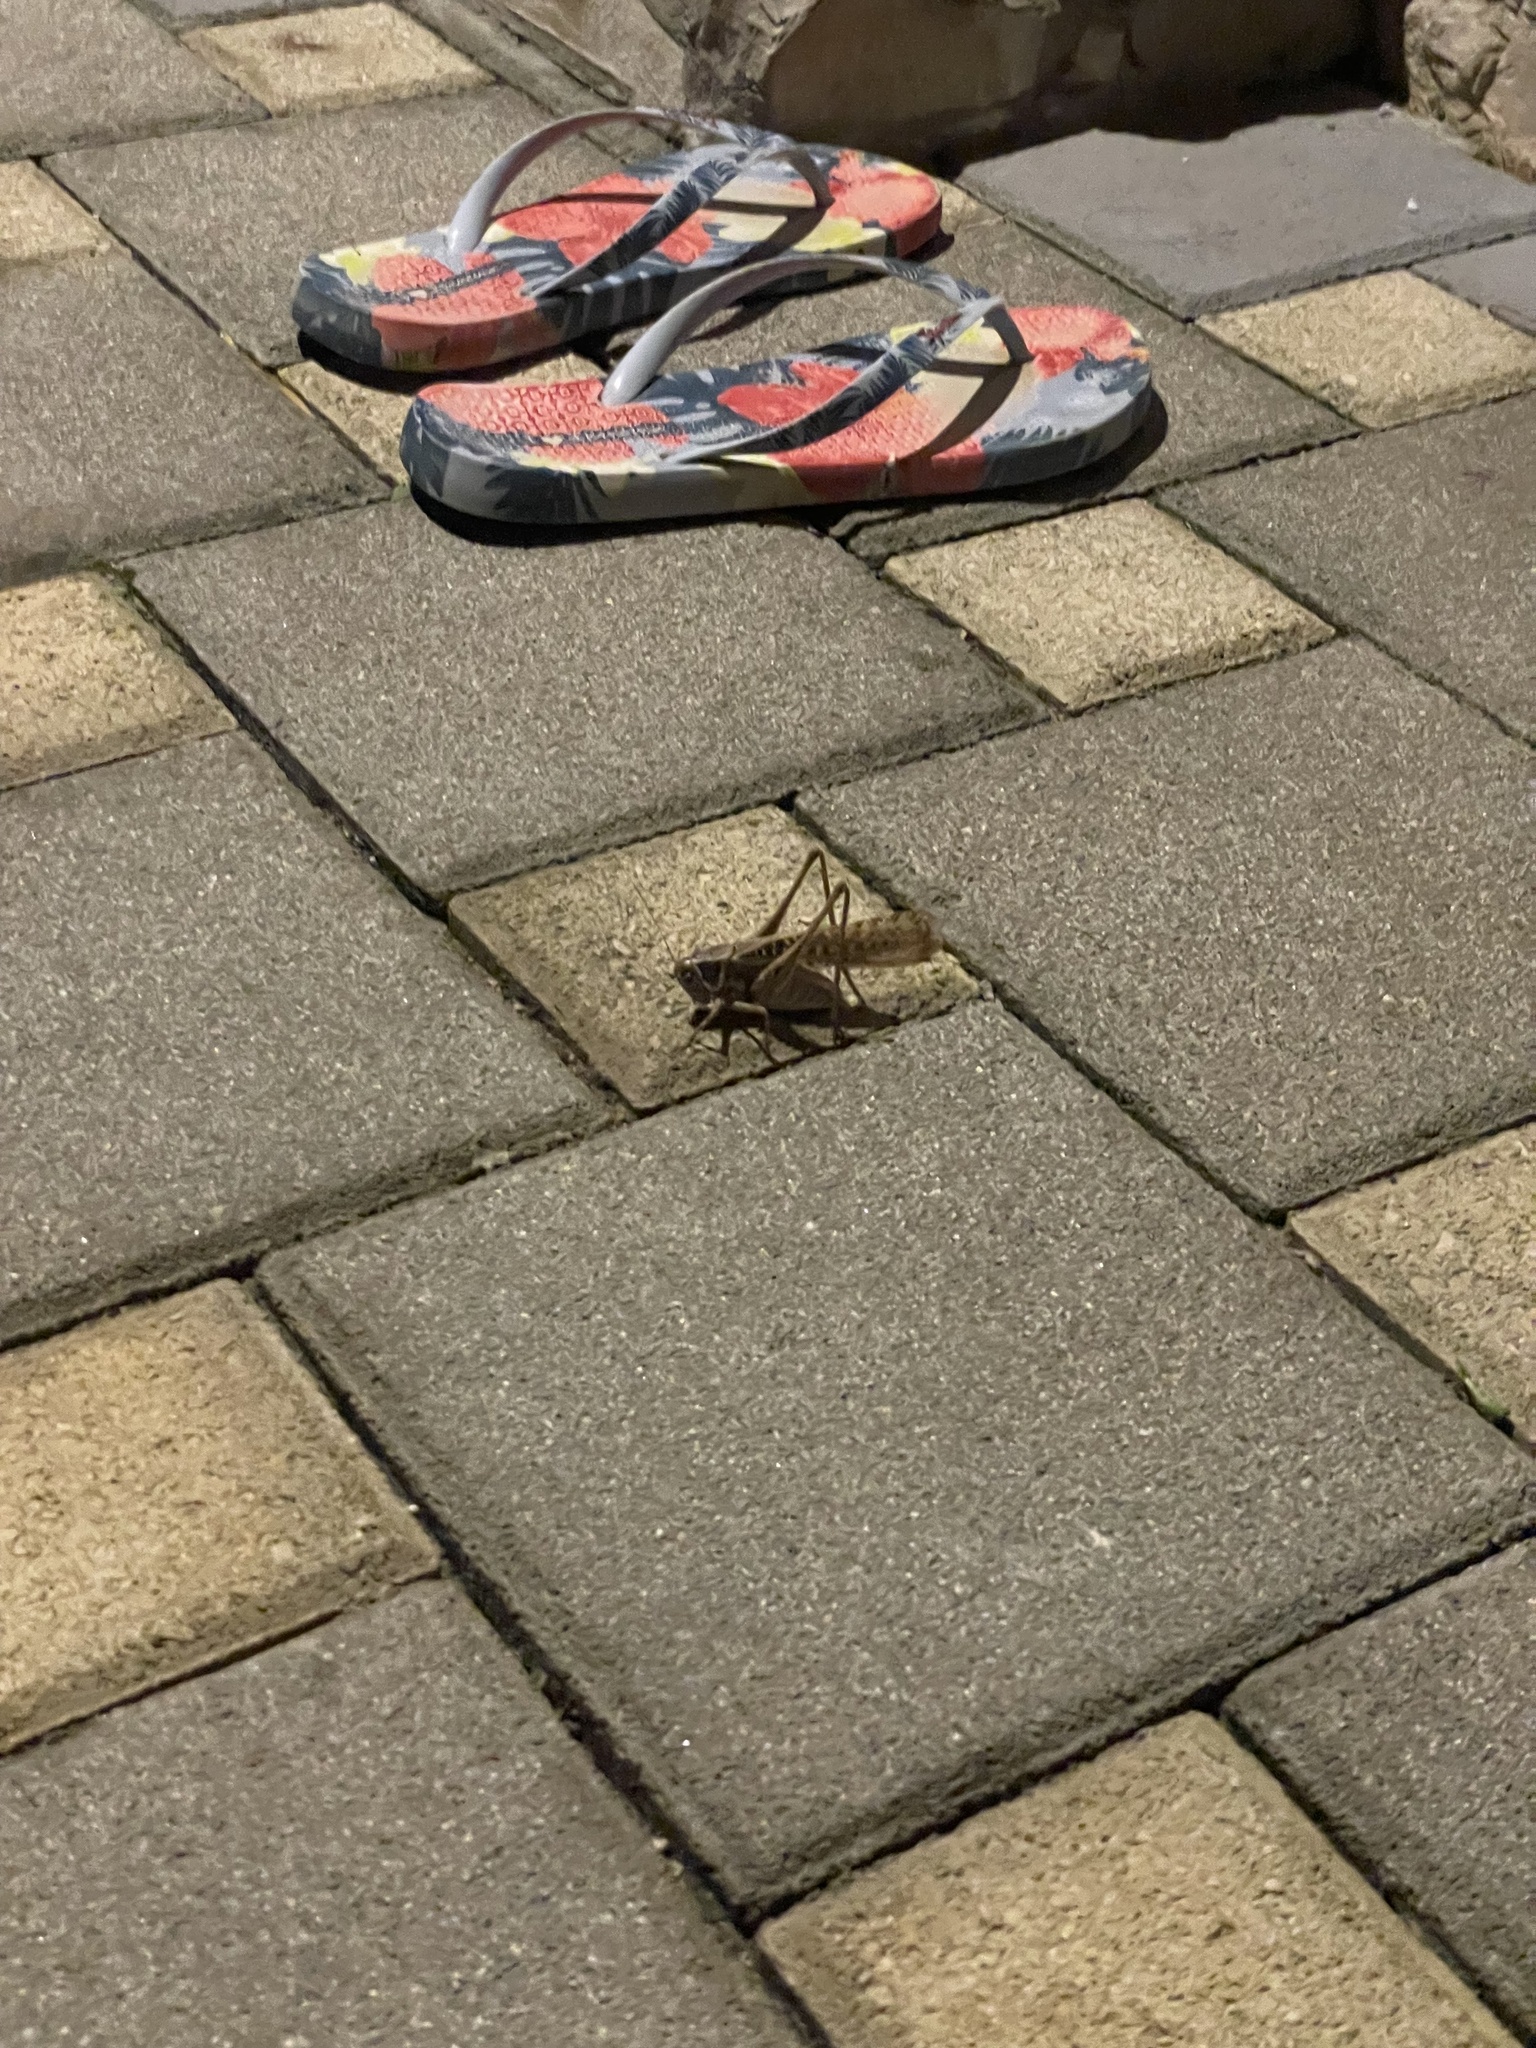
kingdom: Animalia
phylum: Arthropoda
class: Insecta
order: Orthoptera
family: Tettigoniidae
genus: Decticus
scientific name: Decticus albifrons
